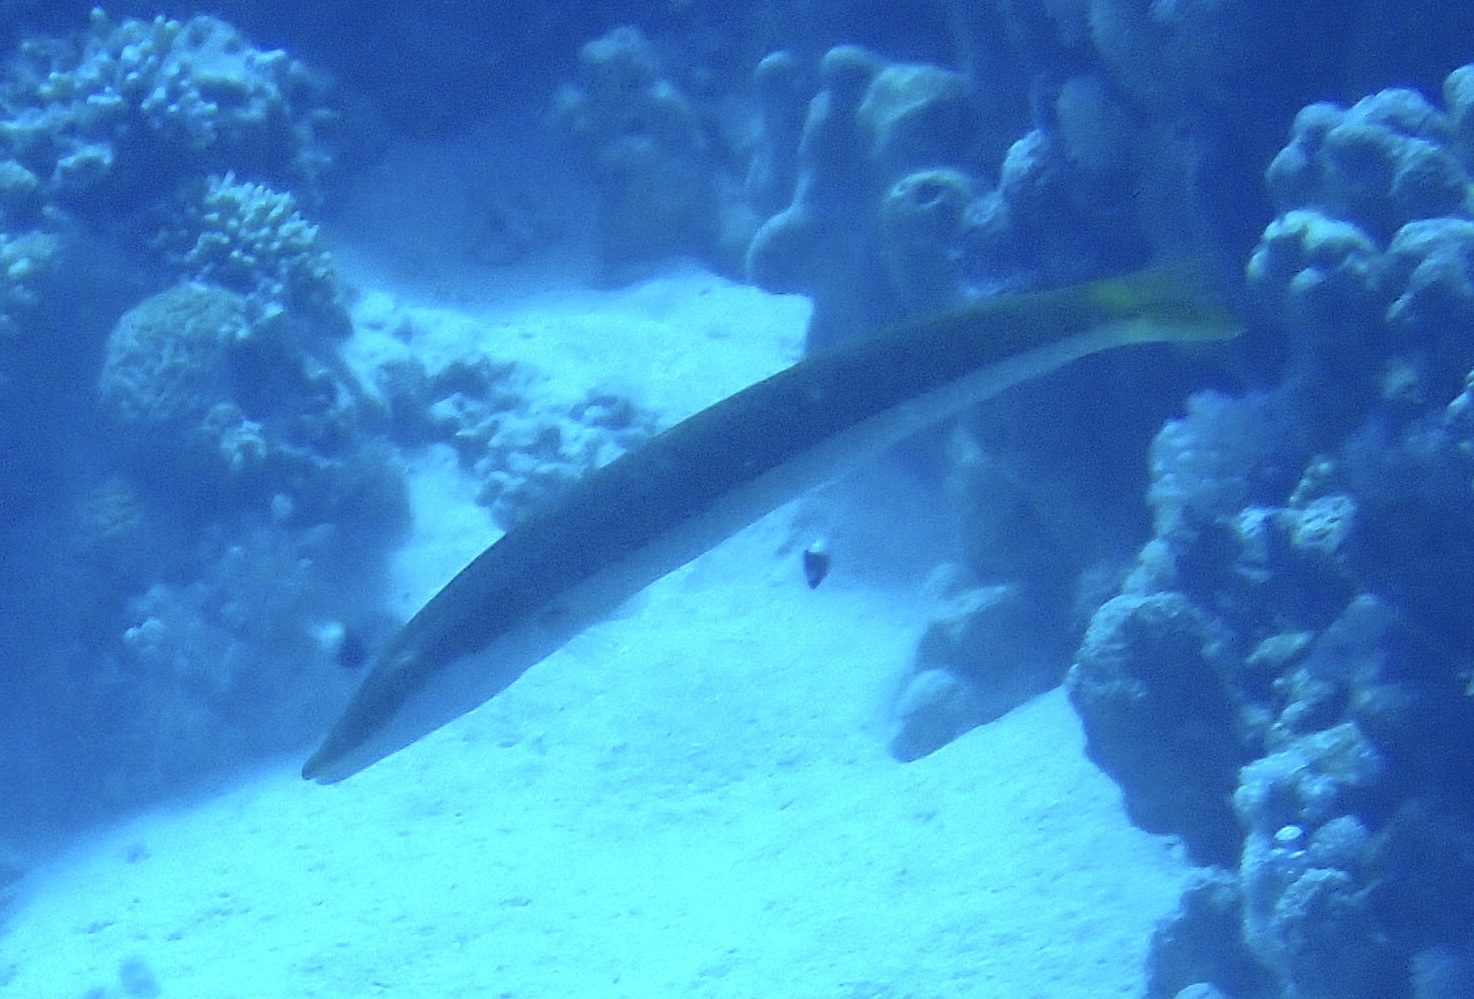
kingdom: Animalia
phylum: Chordata
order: Perciformes
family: Labridae
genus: Cheilio
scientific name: Cheilio inermis
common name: Cigar wrasse
